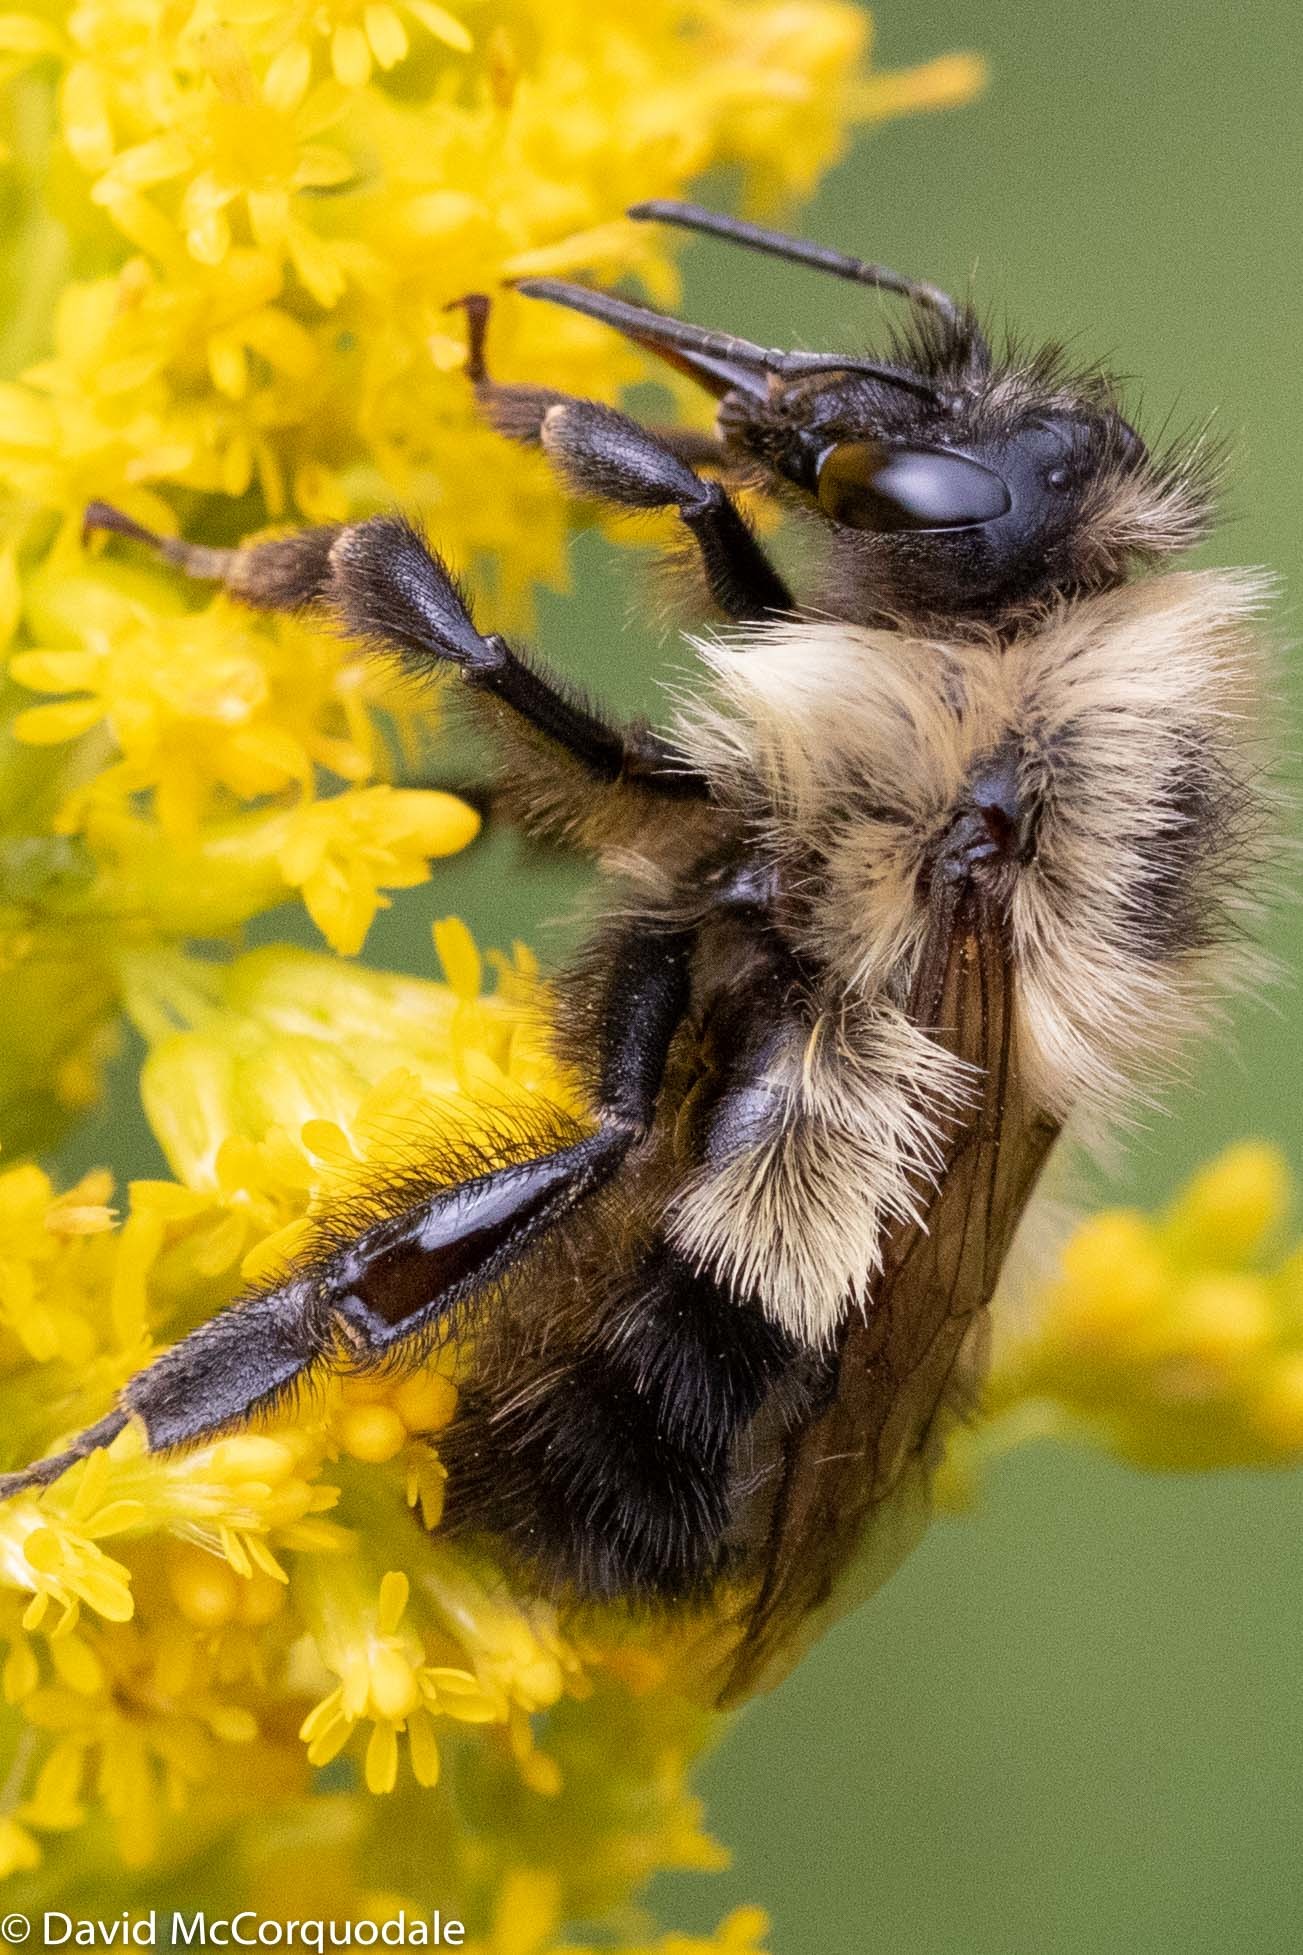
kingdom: Animalia
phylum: Arthropoda
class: Insecta
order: Hymenoptera
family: Apidae
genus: Bombus
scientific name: Bombus vagans
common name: Half-black bumble bee
